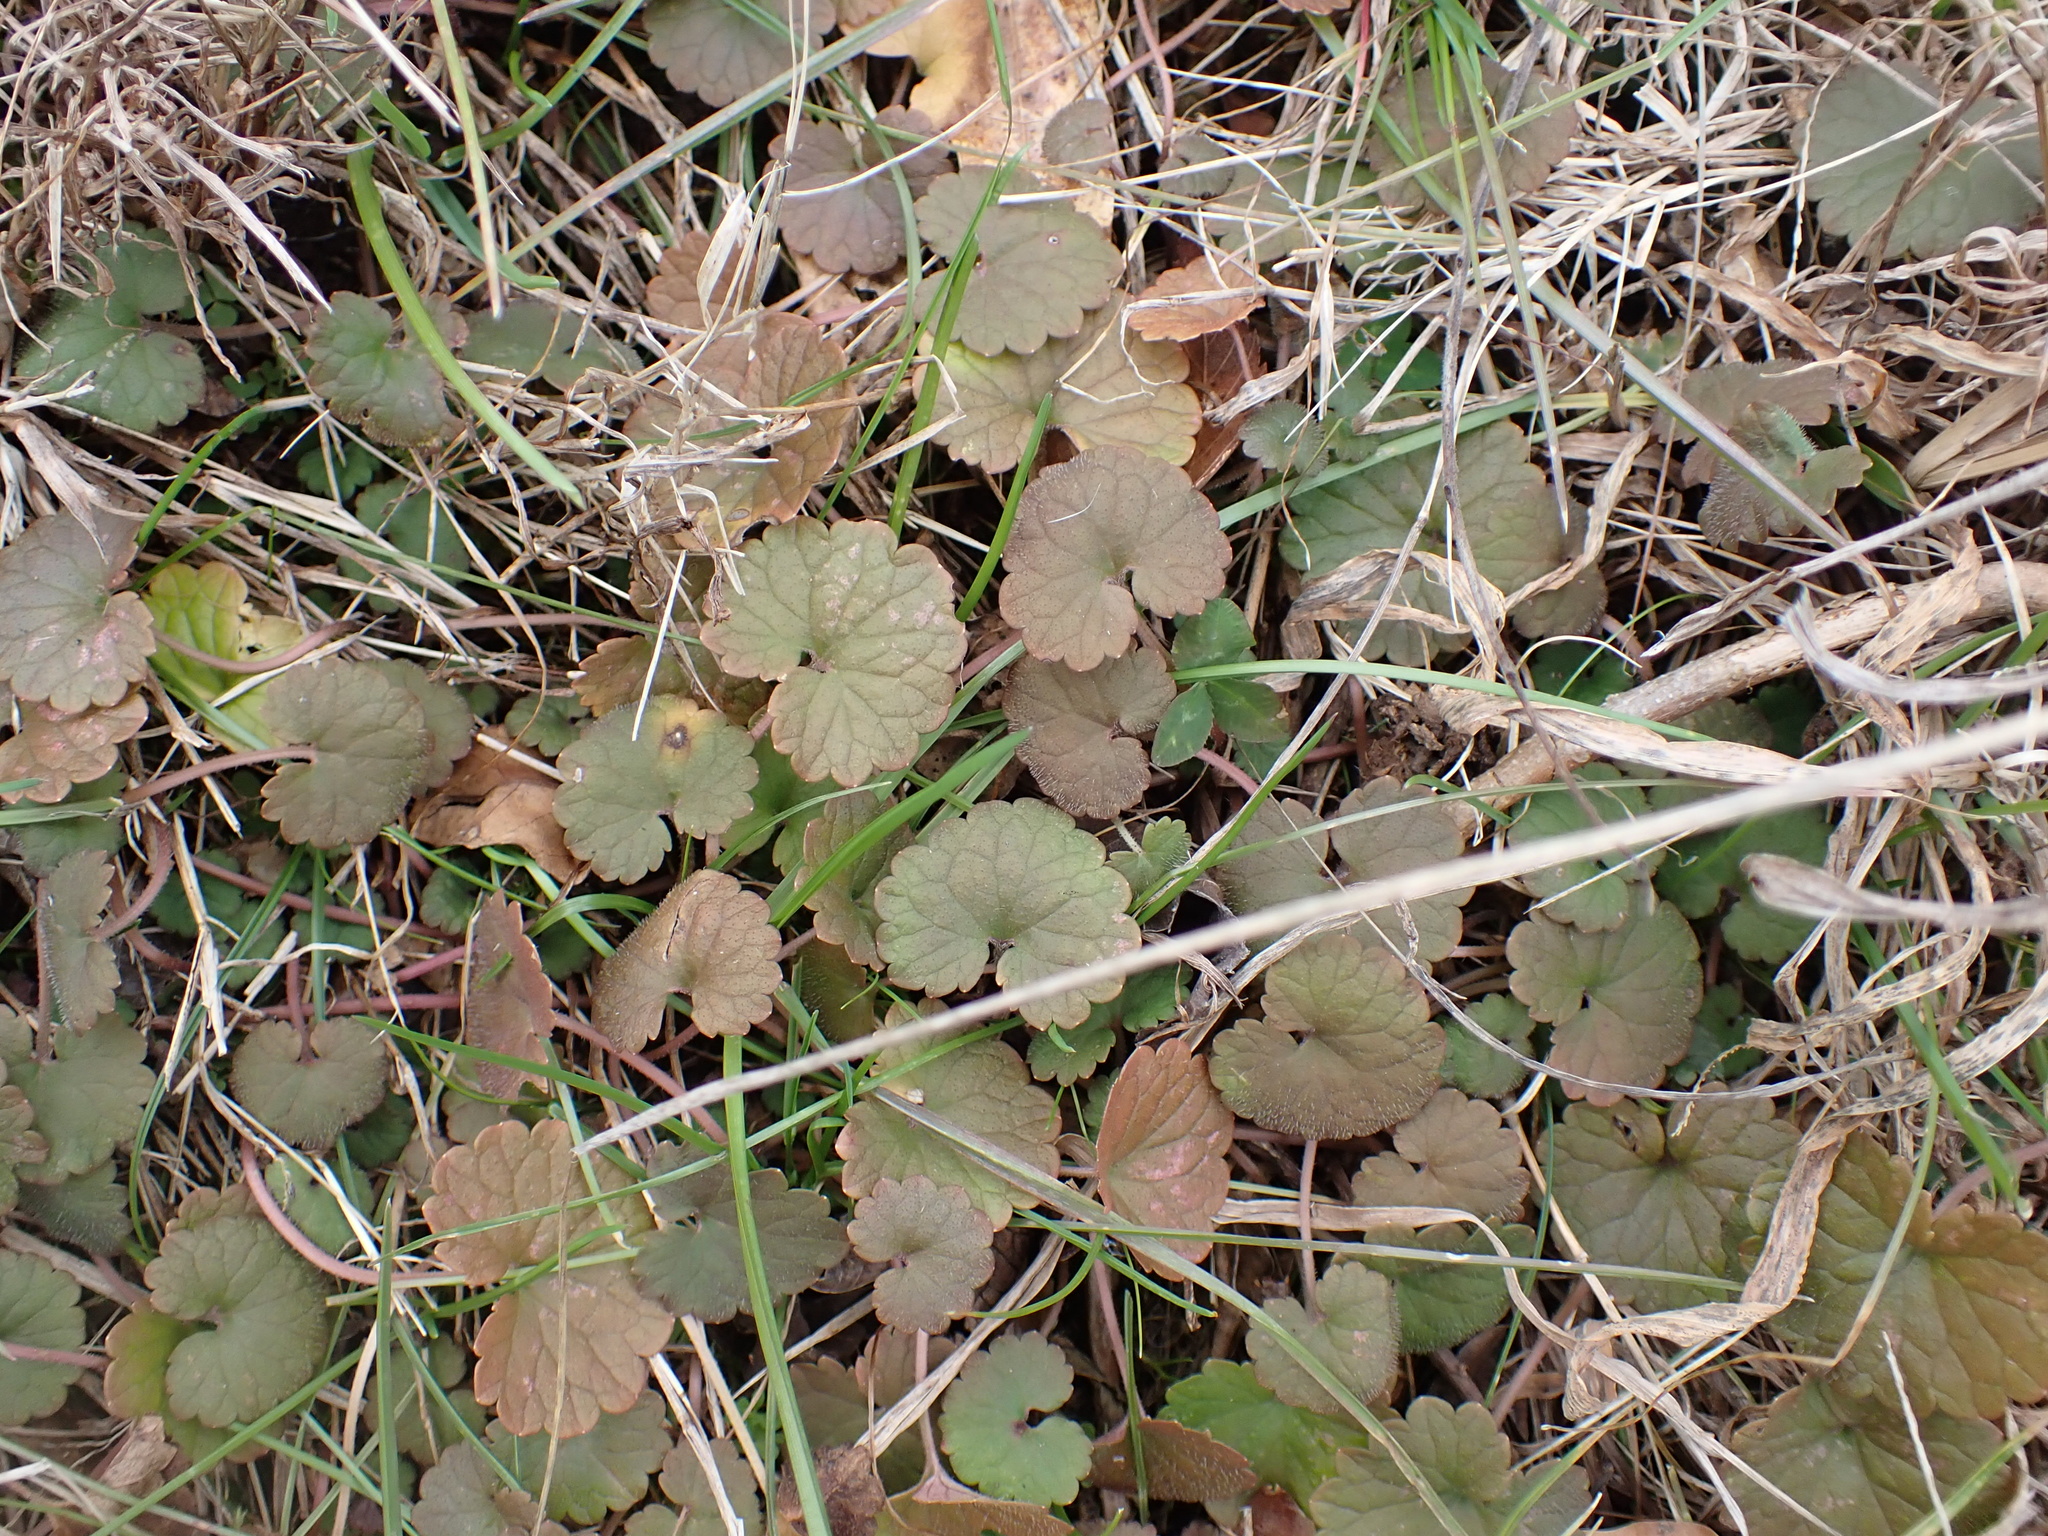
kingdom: Plantae
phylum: Tracheophyta
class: Magnoliopsida
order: Lamiales
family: Lamiaceae
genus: Glechoma
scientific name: Glechoma hederacea
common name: Ground ivy
